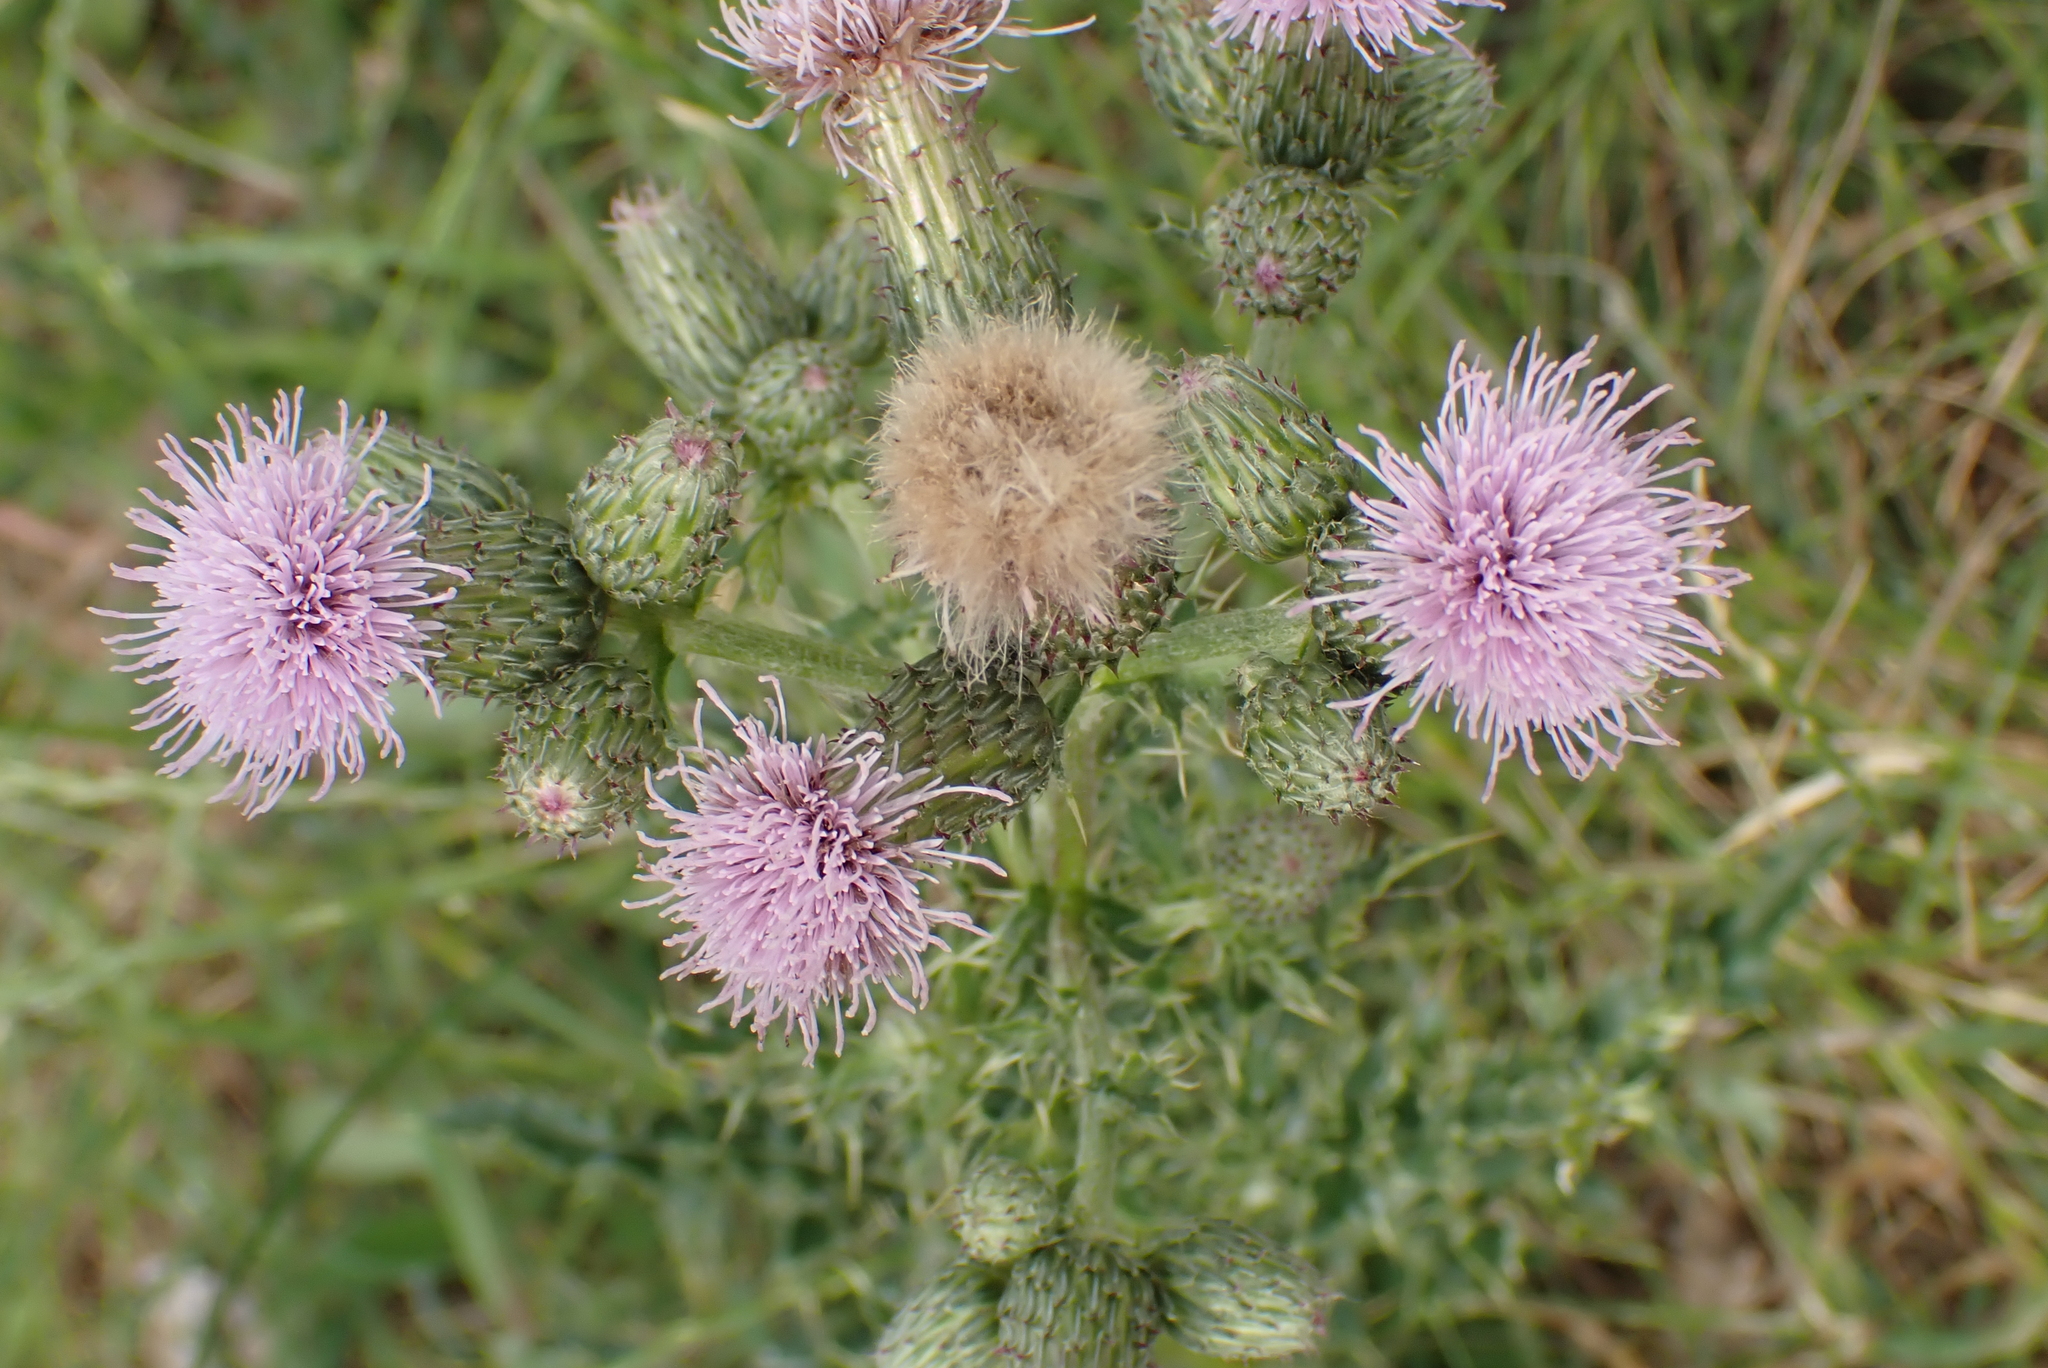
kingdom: Plantae
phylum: Tracheophyta
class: Magnoliopsida
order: Asterales
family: Asteraceae
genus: Cirsium
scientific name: Cirsium arvense
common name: Creeping thistle
